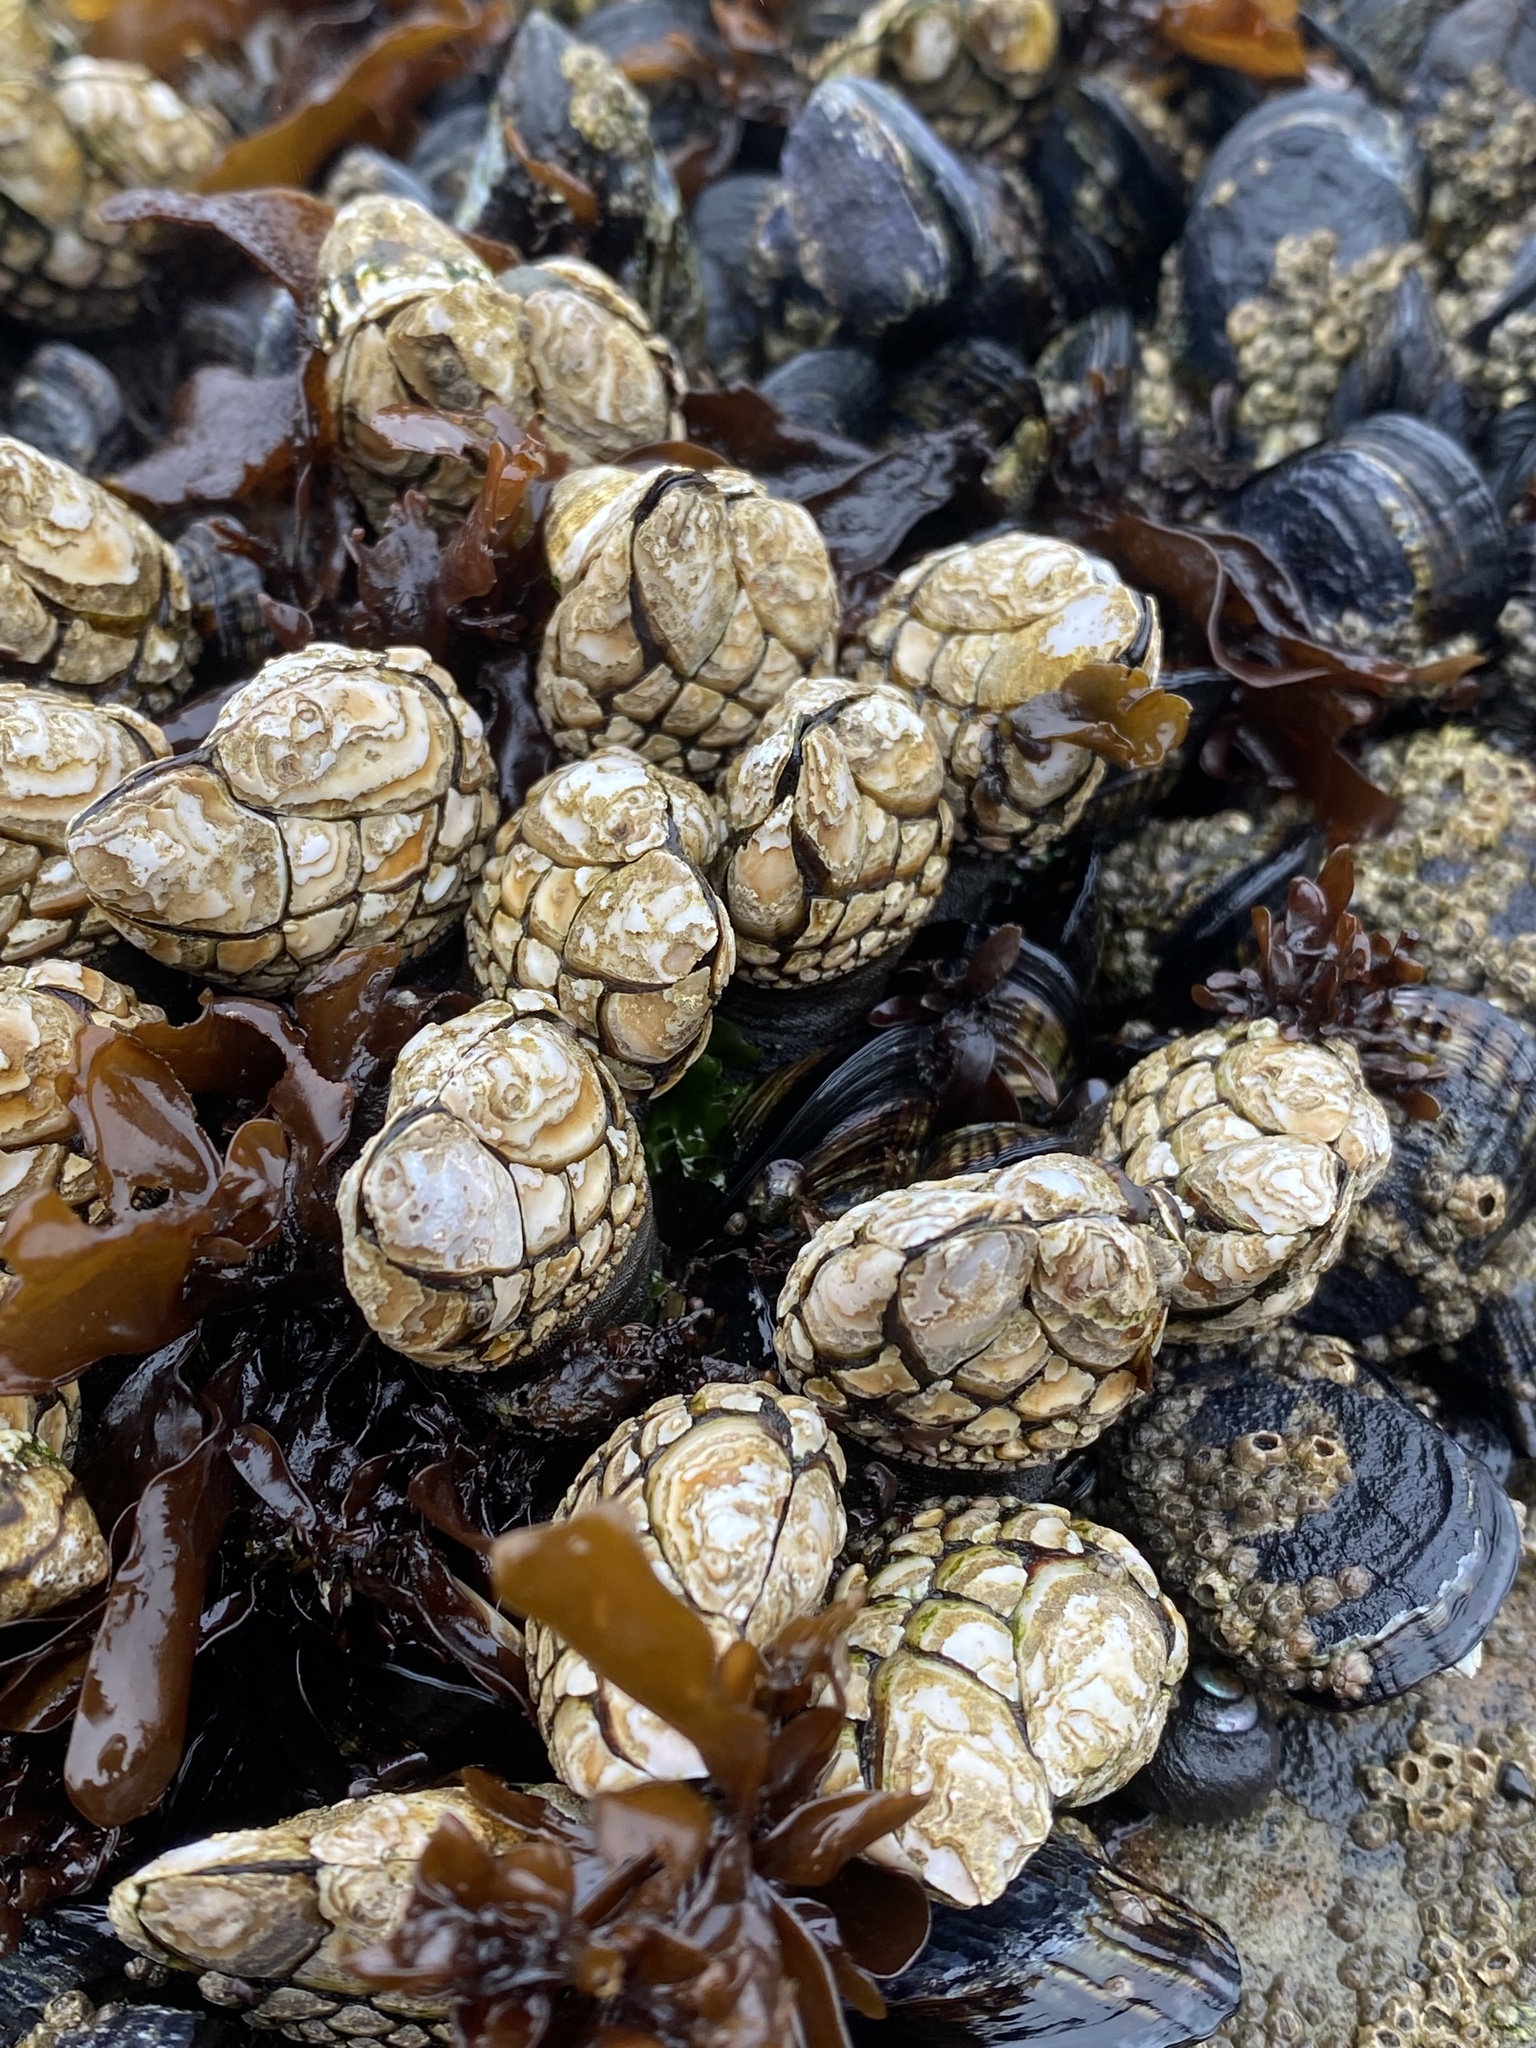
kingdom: Animalia
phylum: Arthropoda
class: Maxillopoda
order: Pedunculata
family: Pollicipedidae
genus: Pollicipes
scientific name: Pollicipes polymerus
